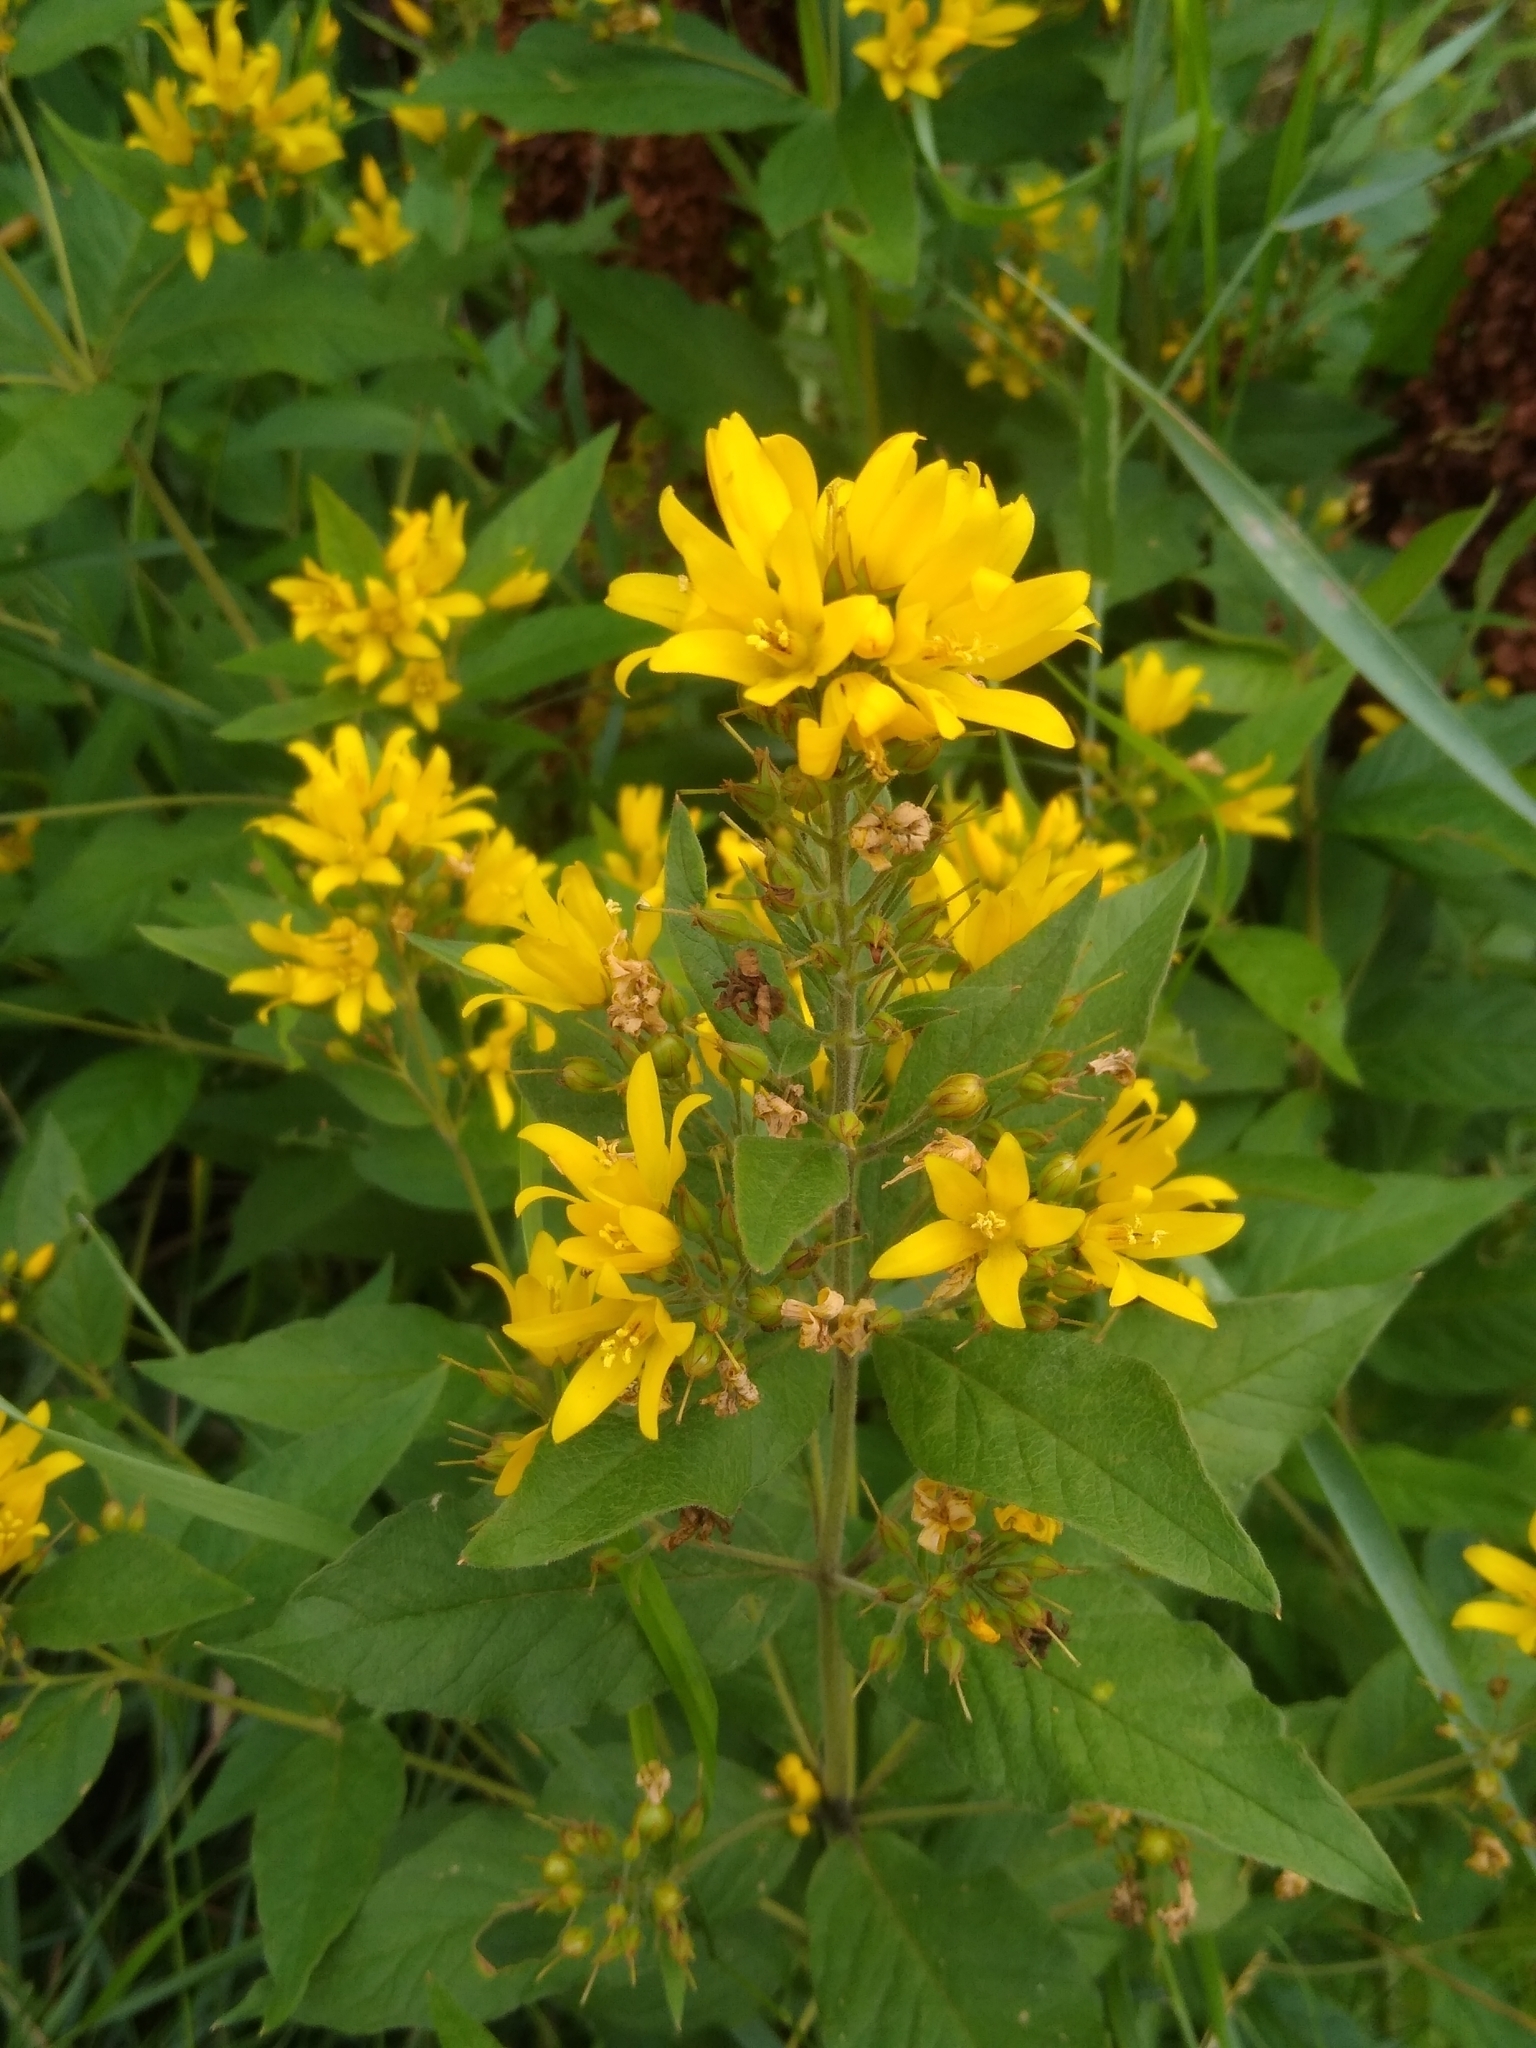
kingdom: Plantae
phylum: Tracheophyta
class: Magnoliopsida
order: Ericales
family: Primulaceae
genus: Lysimachia
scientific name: Lysimachia vulgaris
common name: Yellow loosestrife
